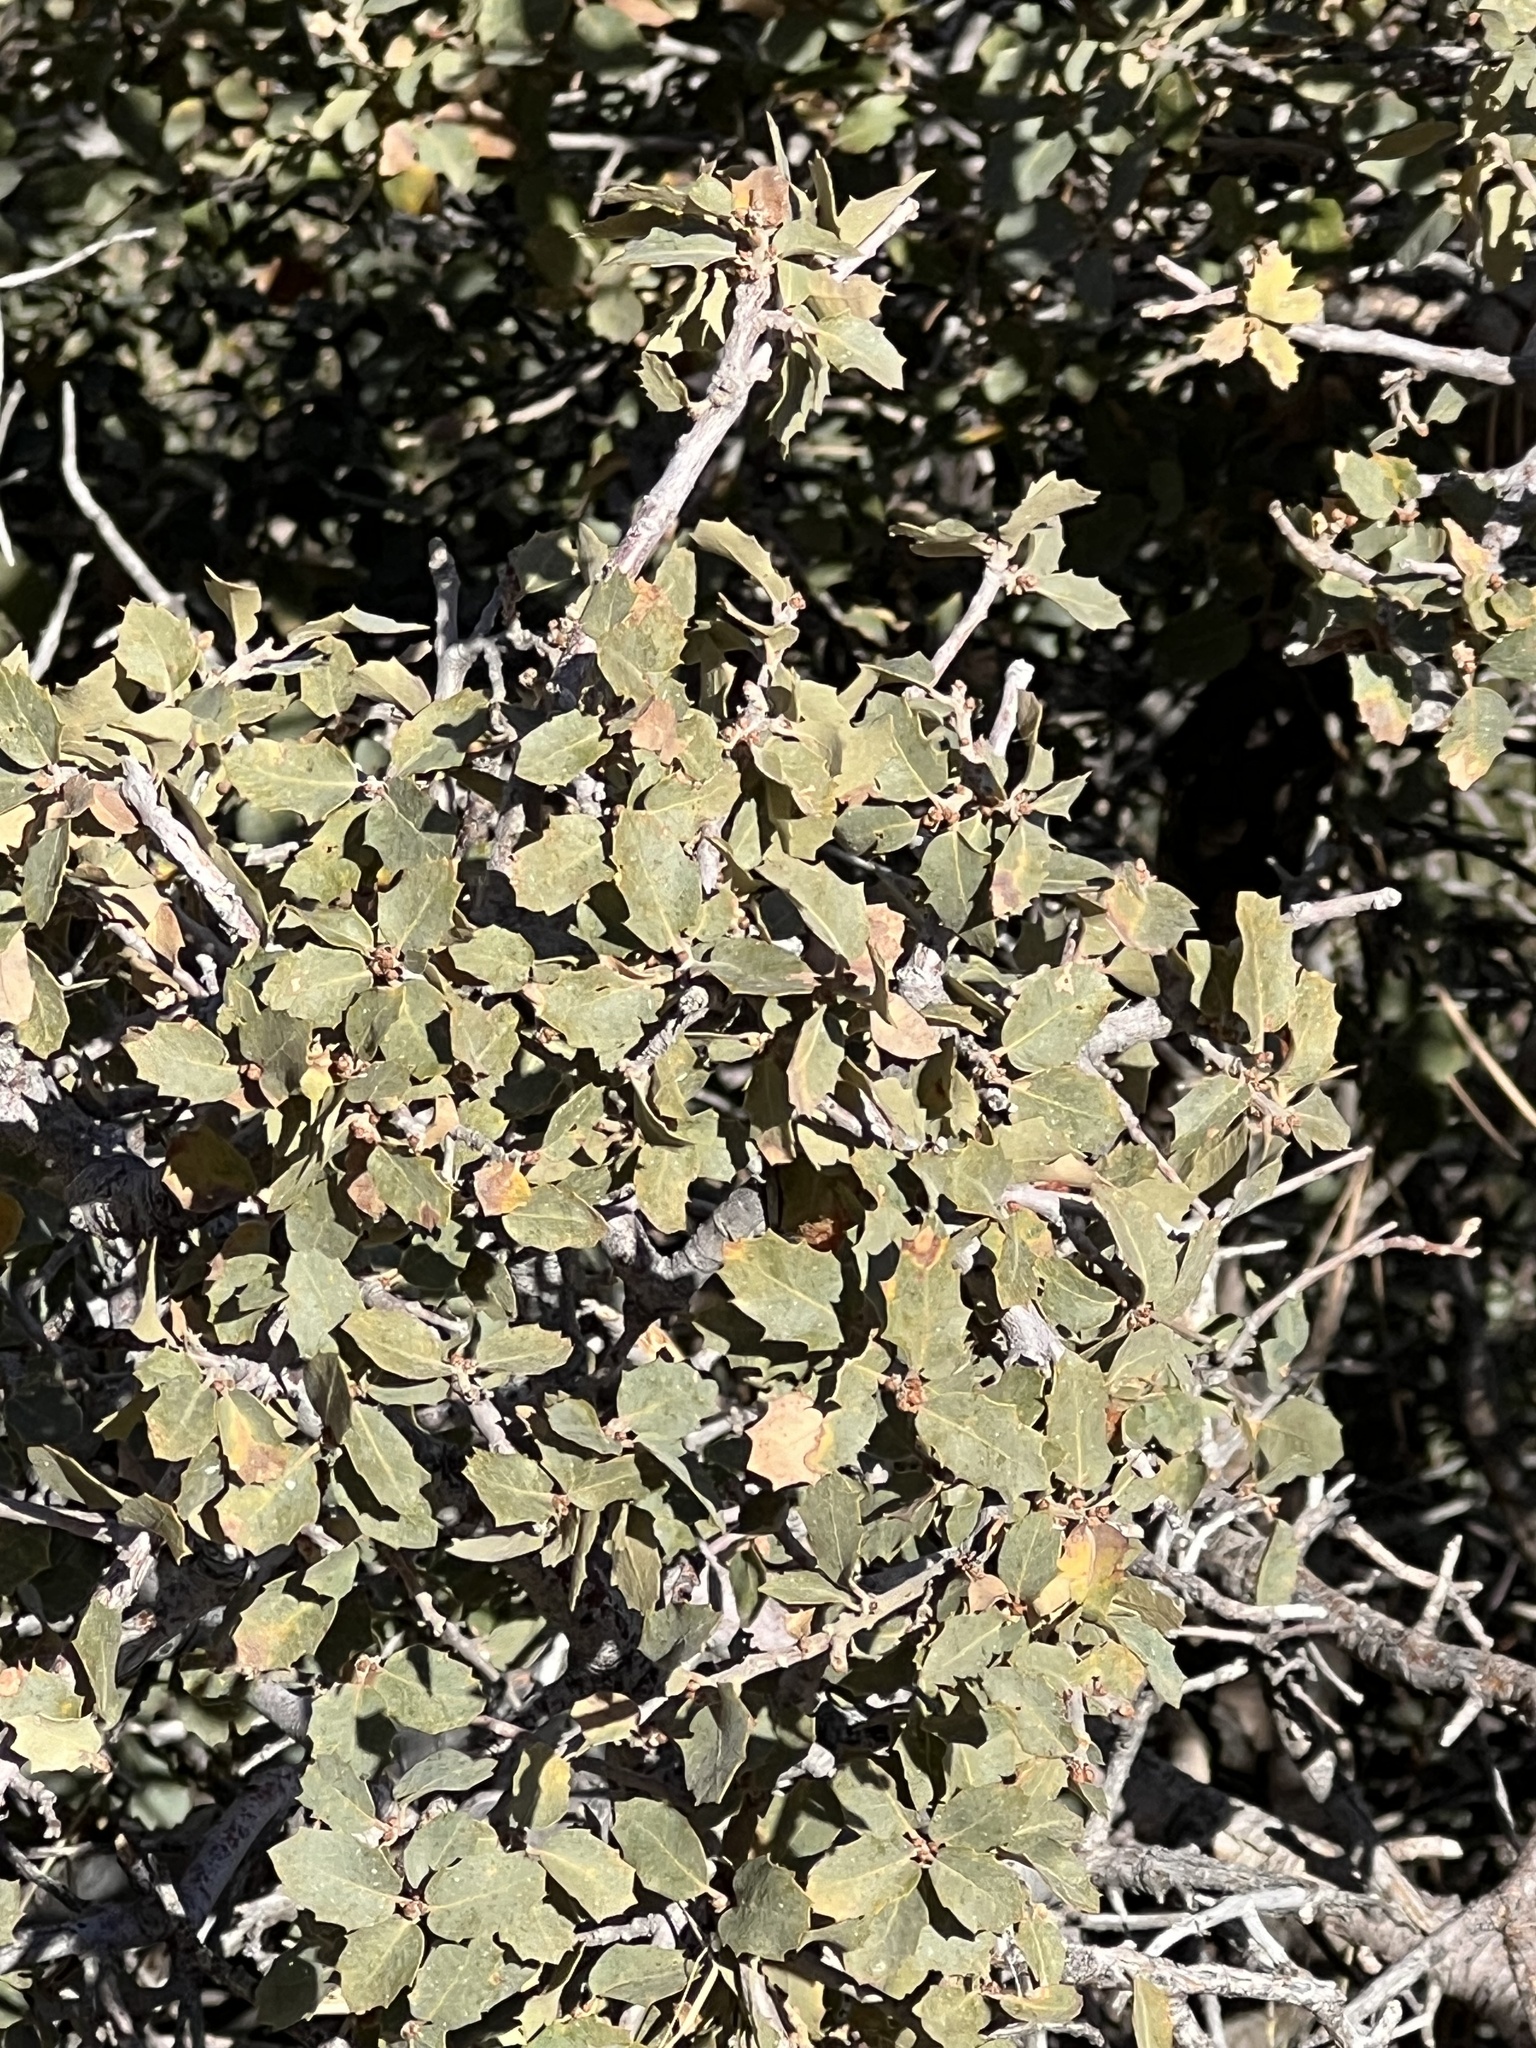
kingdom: Plantae
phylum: Tracheophyta
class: Magnoliopsida
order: Fagales
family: Fagaceae
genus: Quercus
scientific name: Quercus turbinella
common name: Sonoran scrub oak
